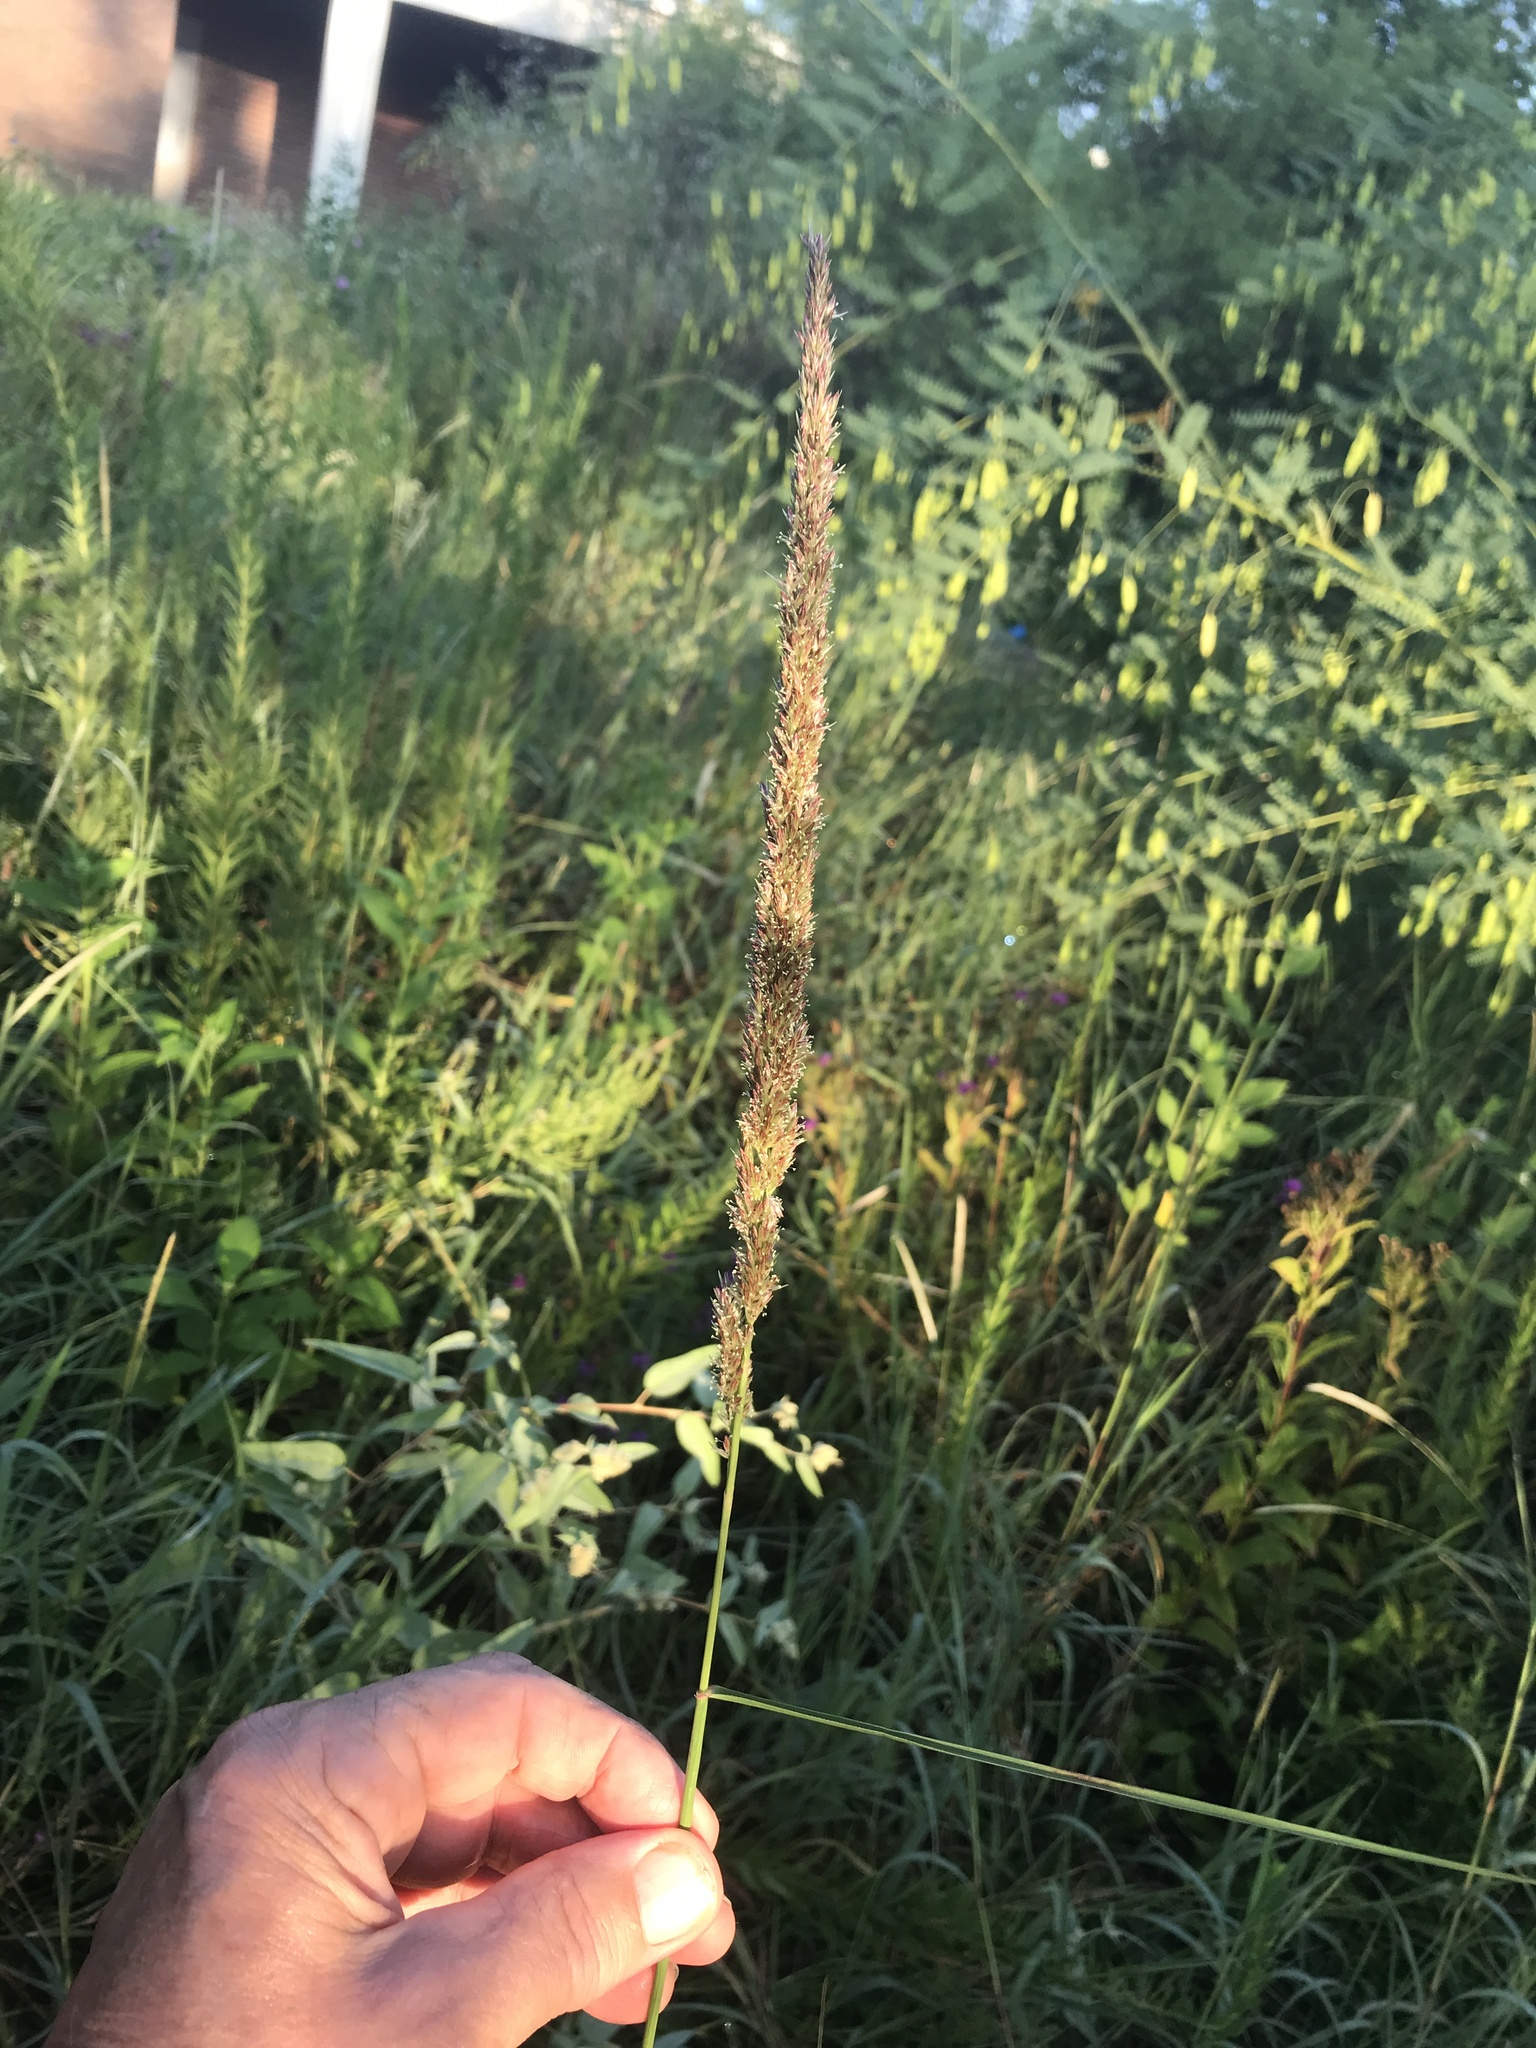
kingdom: Plantae
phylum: Tracheophyta
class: Liliopsida
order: Poales
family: Poaceae
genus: Tridens
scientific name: Tridens strictus
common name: Long-spike tridens
